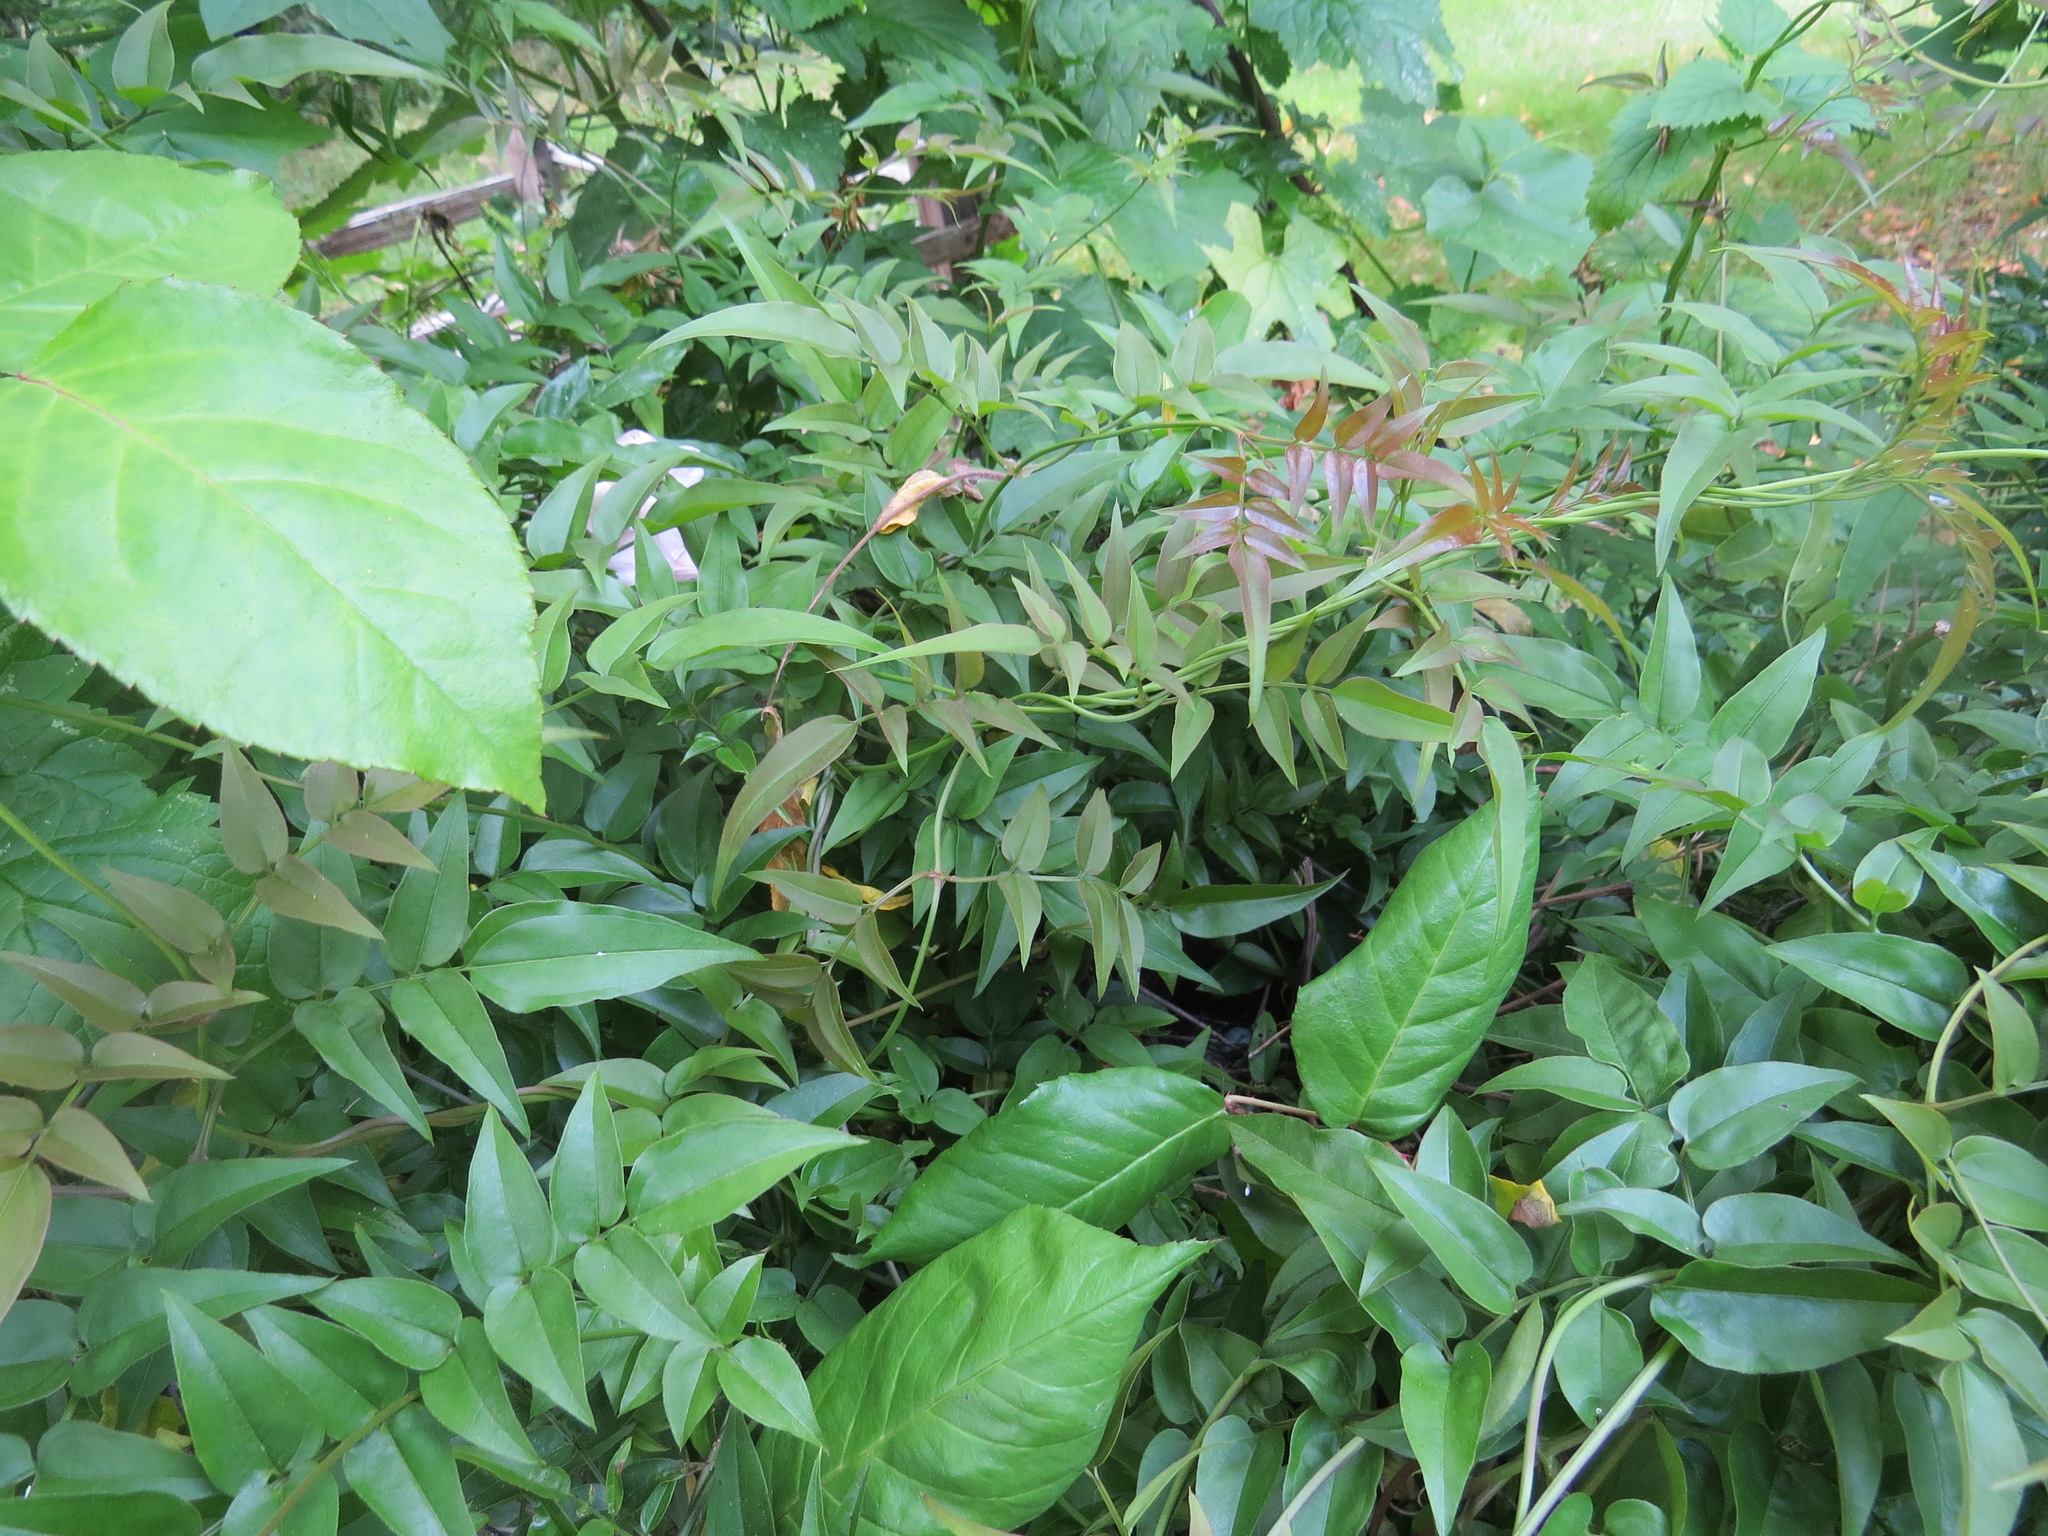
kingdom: Animalia
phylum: Chordata
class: Aves
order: Passeriformes
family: Passerellidae
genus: Melozone
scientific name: Melozone crissalis
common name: California towhee
